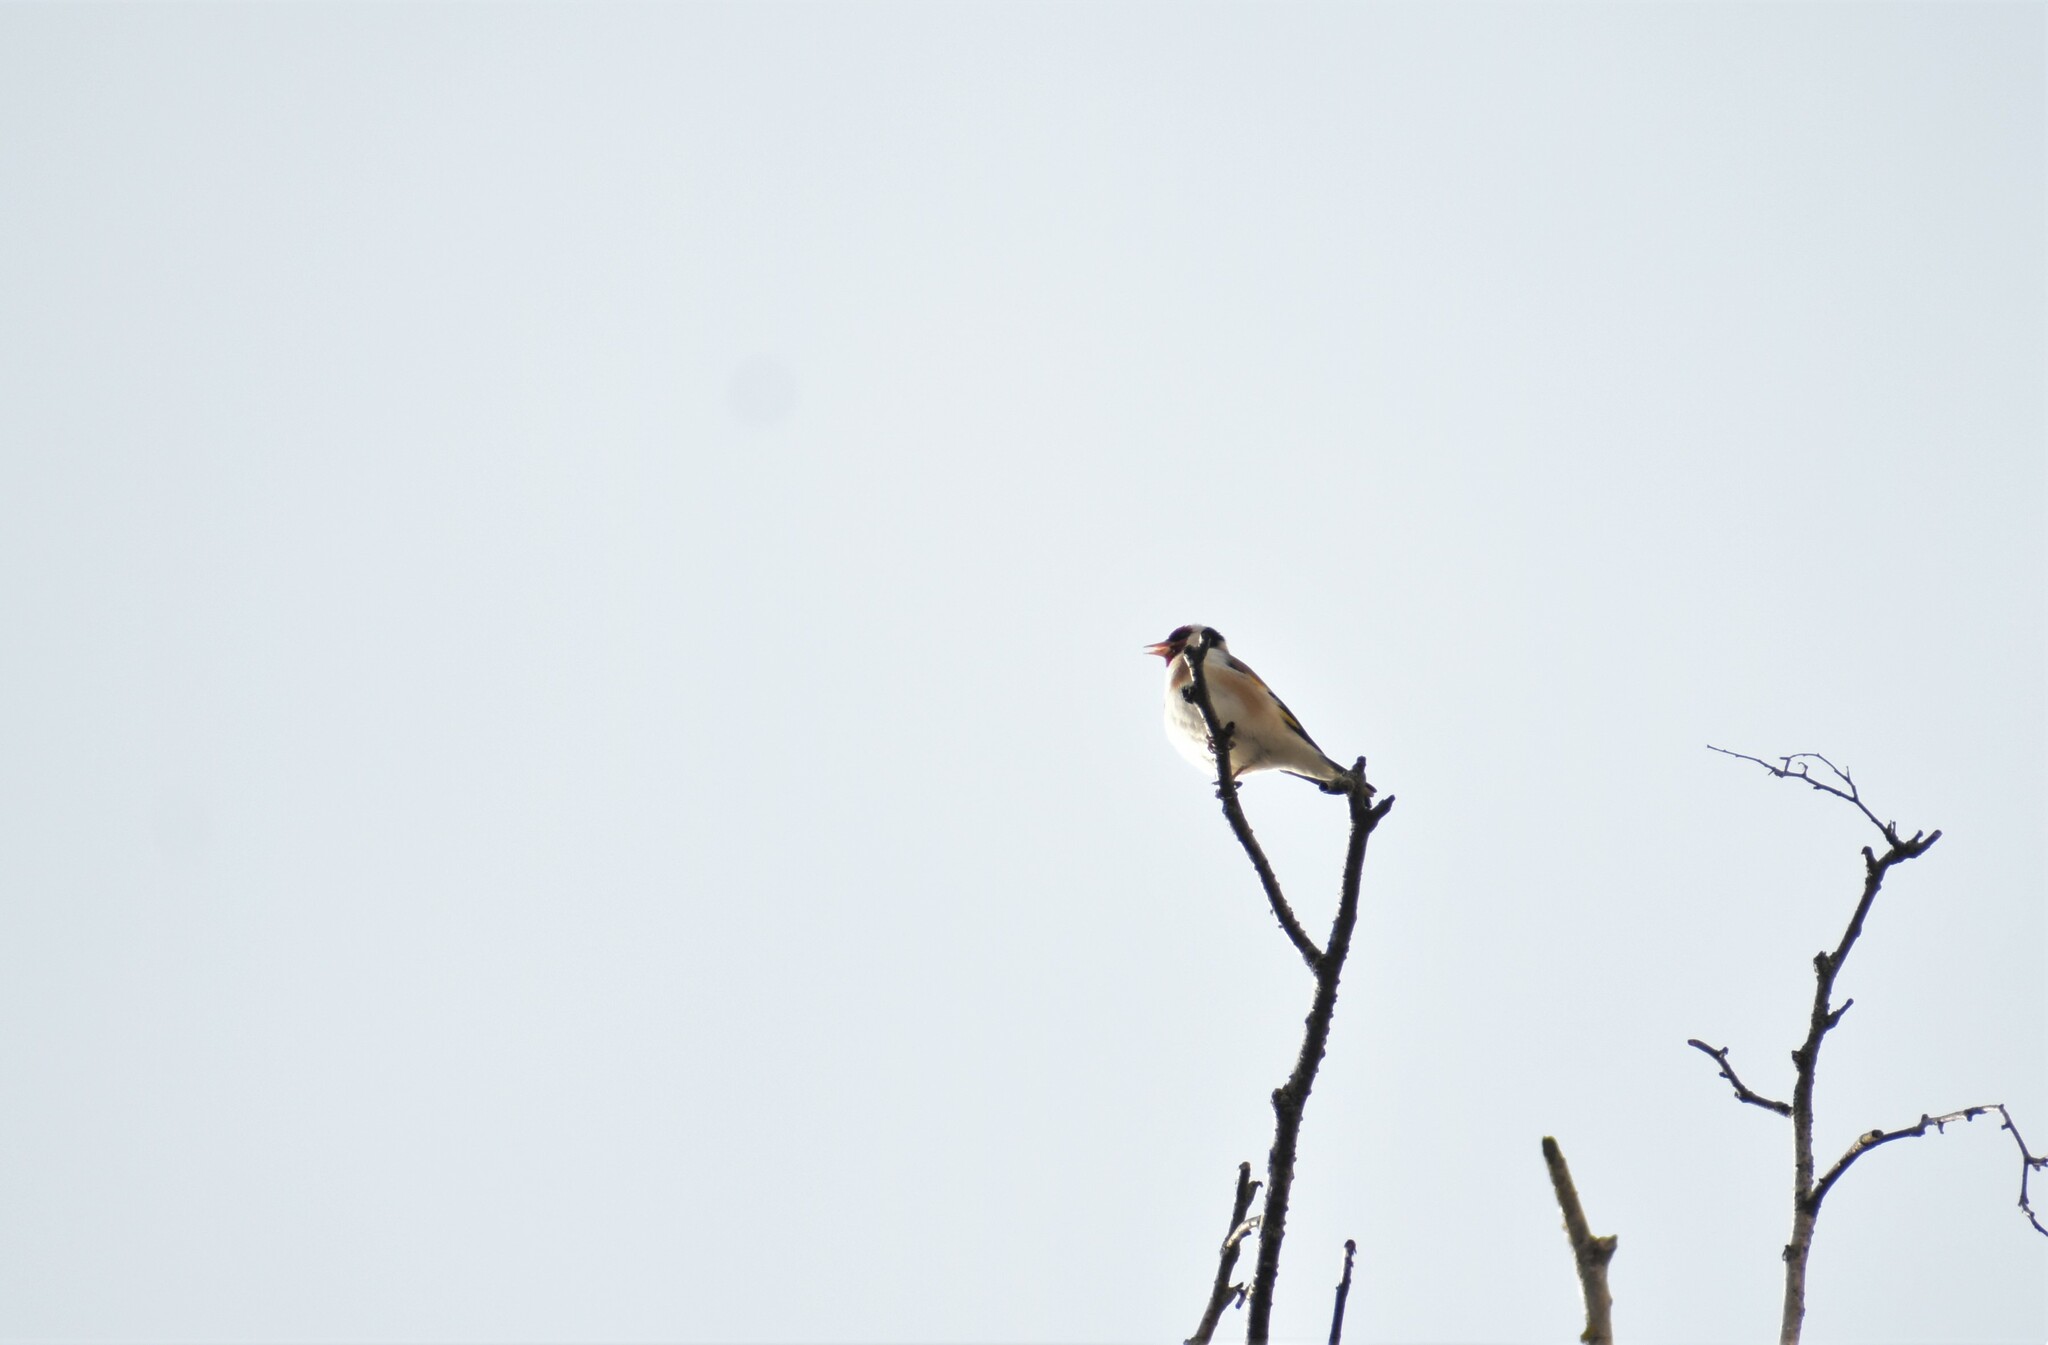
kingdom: Animalia
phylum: Chordata
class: Aves
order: Passeriformes
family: Fringillidae
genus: Carduelis
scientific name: Carduelis carduelis
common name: European goldfinch
